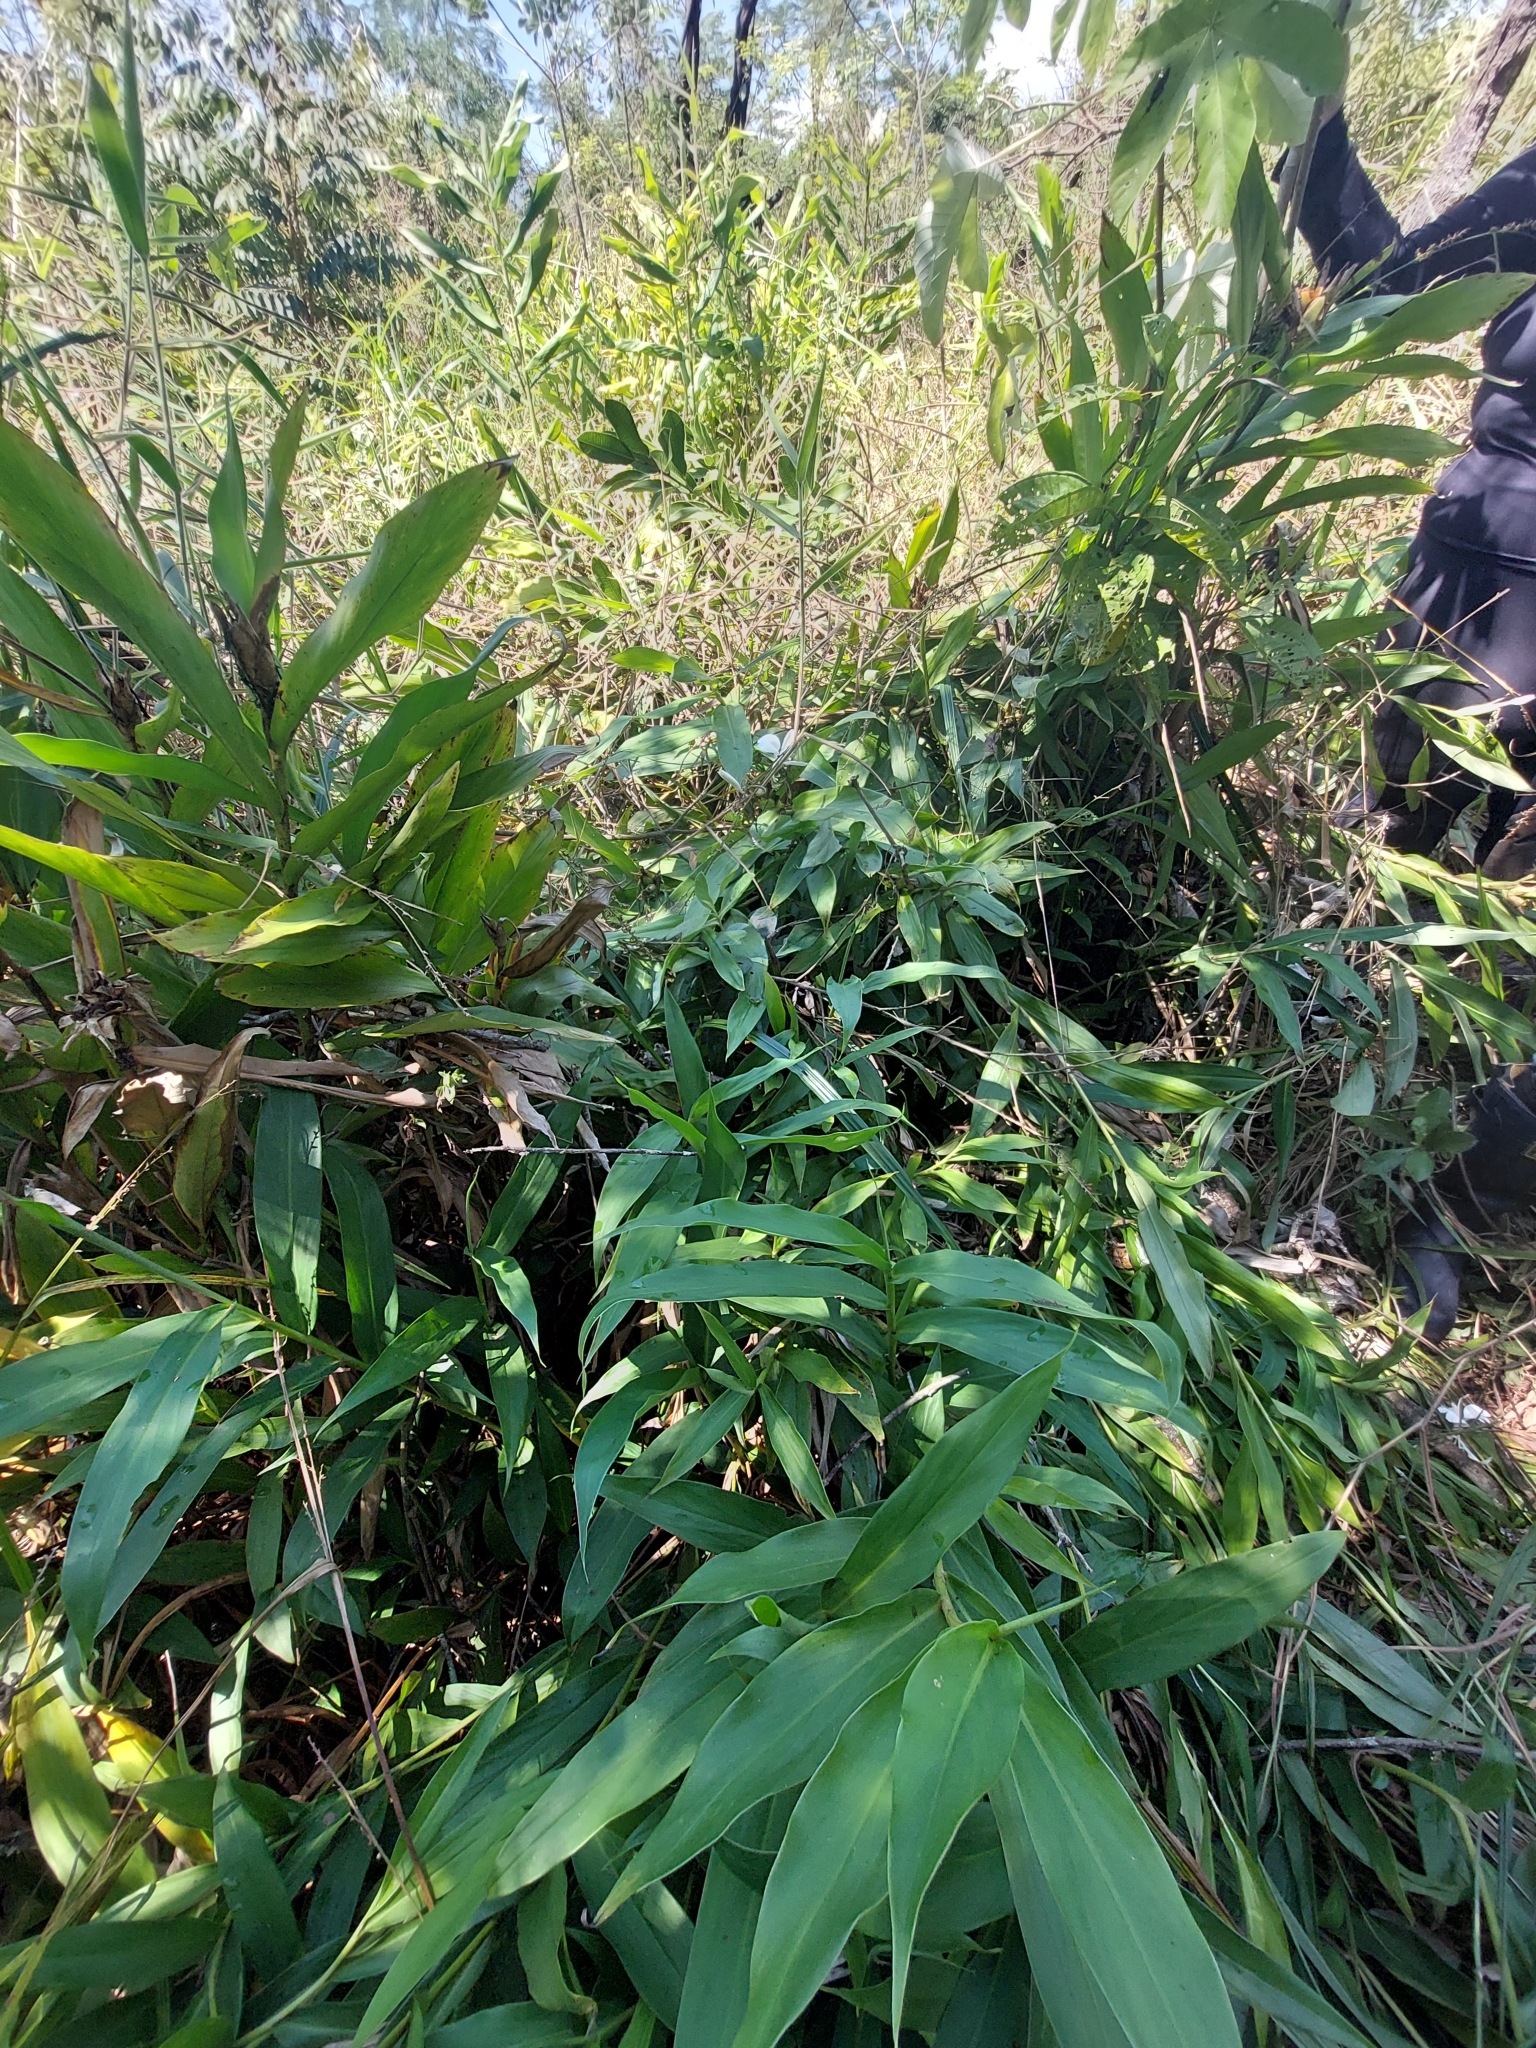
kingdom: Plantae
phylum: Tracheophyta
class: Liliopsida
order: Zingiberales
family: Zingiberaceae
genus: Hedychium
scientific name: Hedychium coronarium
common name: White garland-lily
